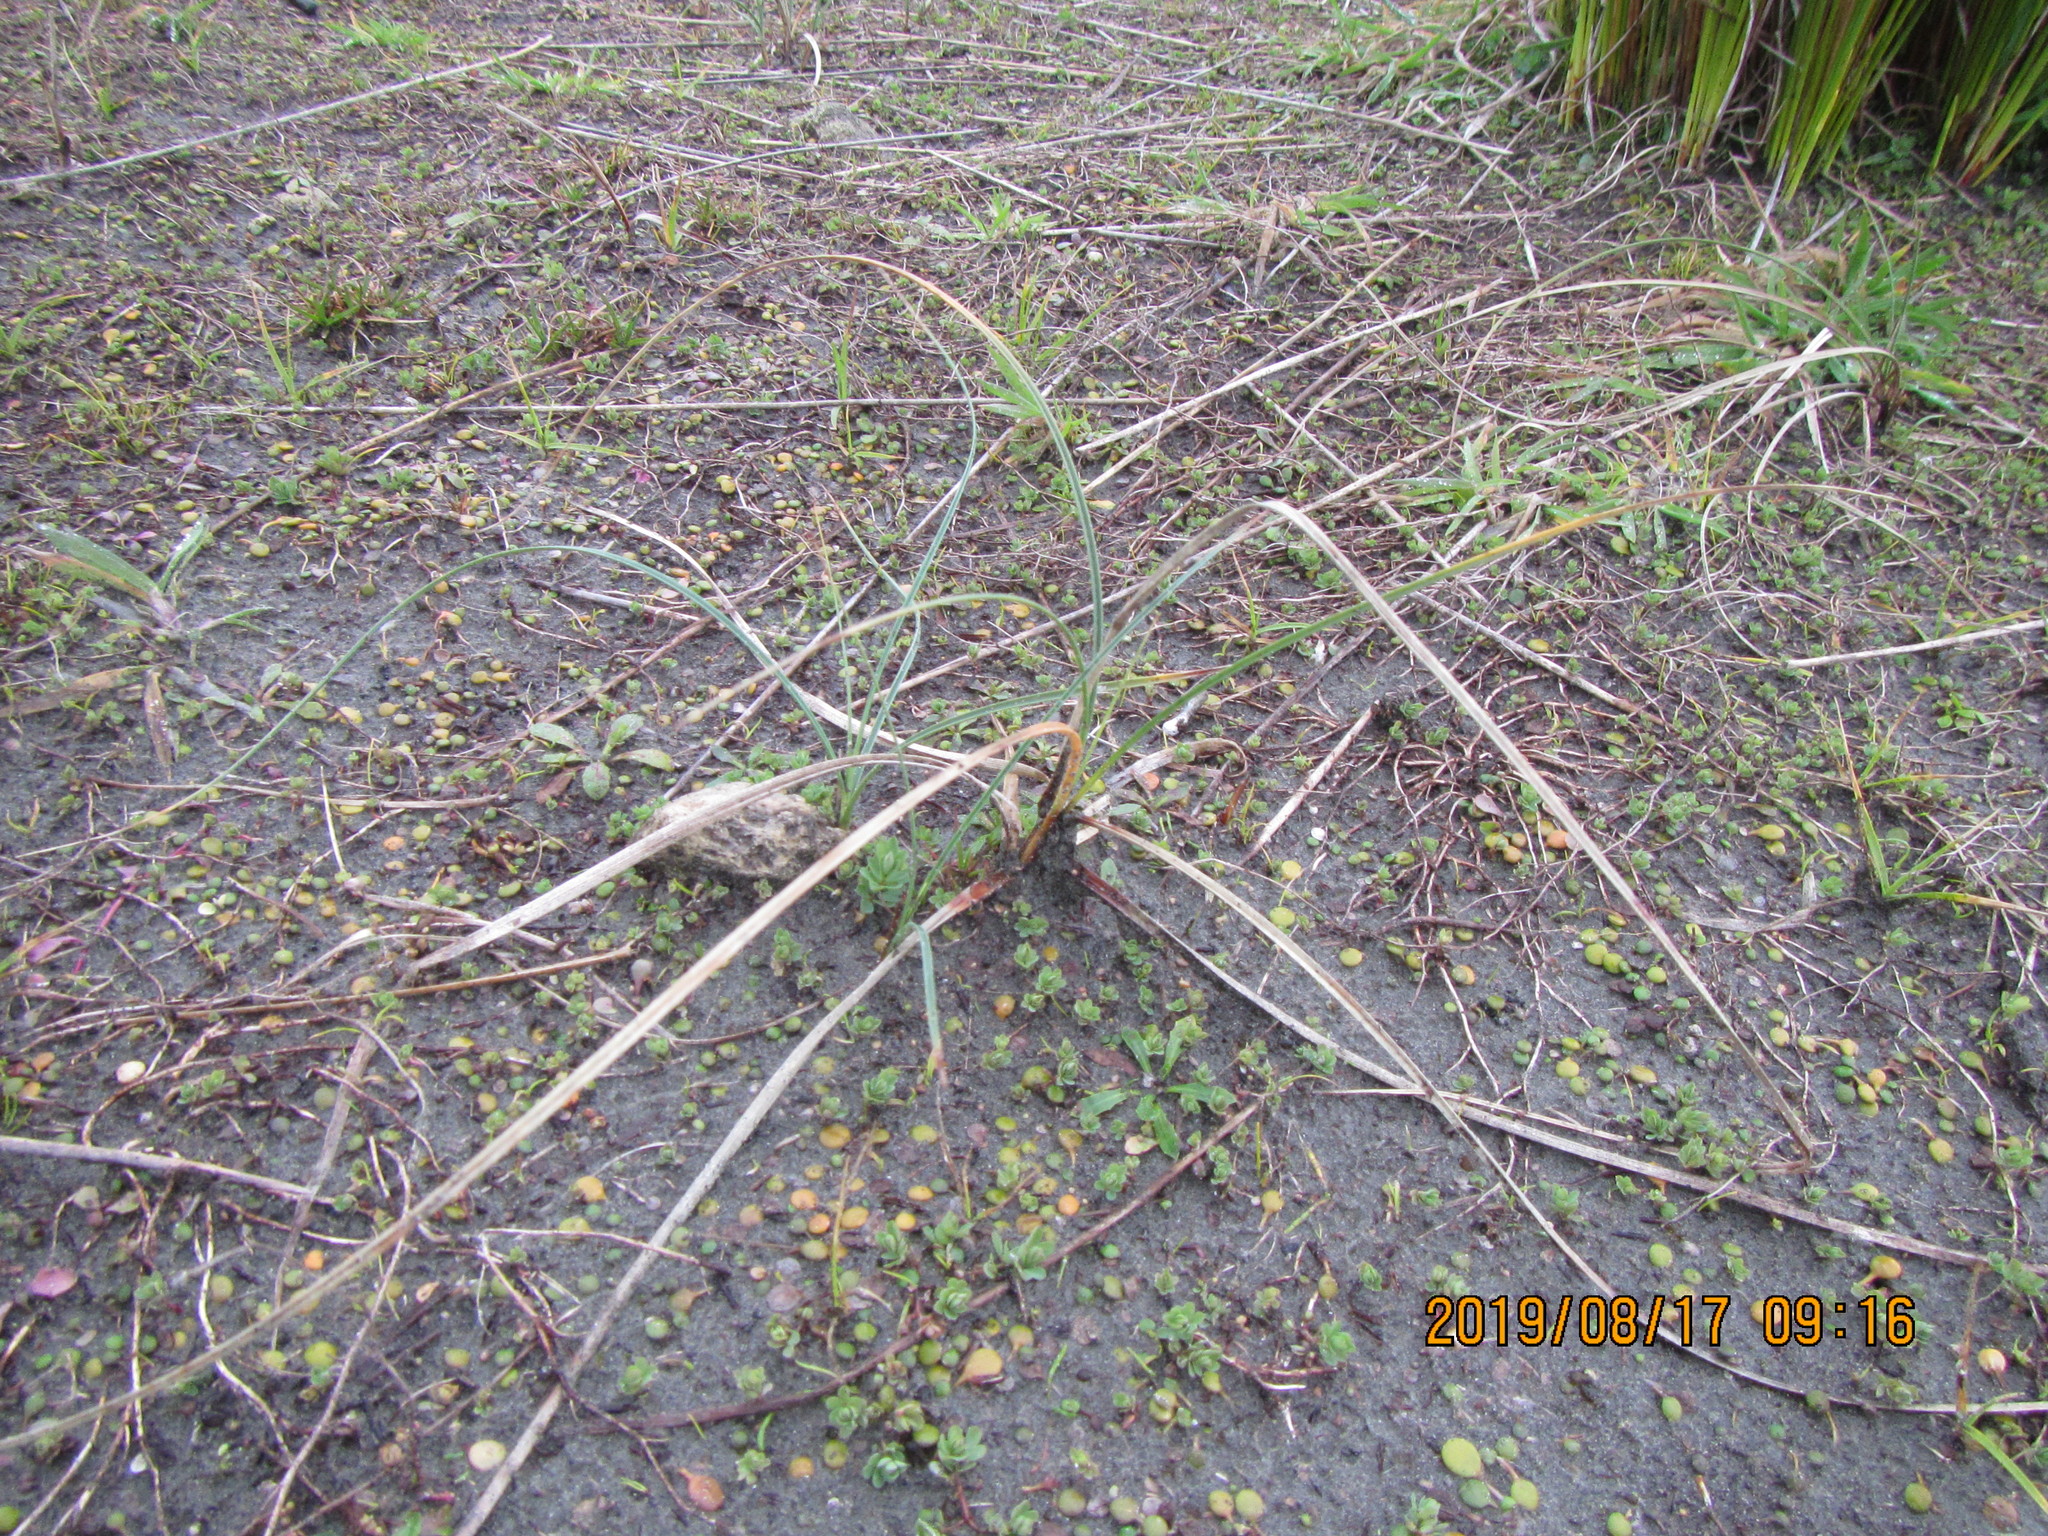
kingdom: Plantae
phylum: Tracheophyta
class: Liliopsida
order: Poales
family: Cyperaceae
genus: Carex
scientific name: Carex pumila
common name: Dwarf sedge
